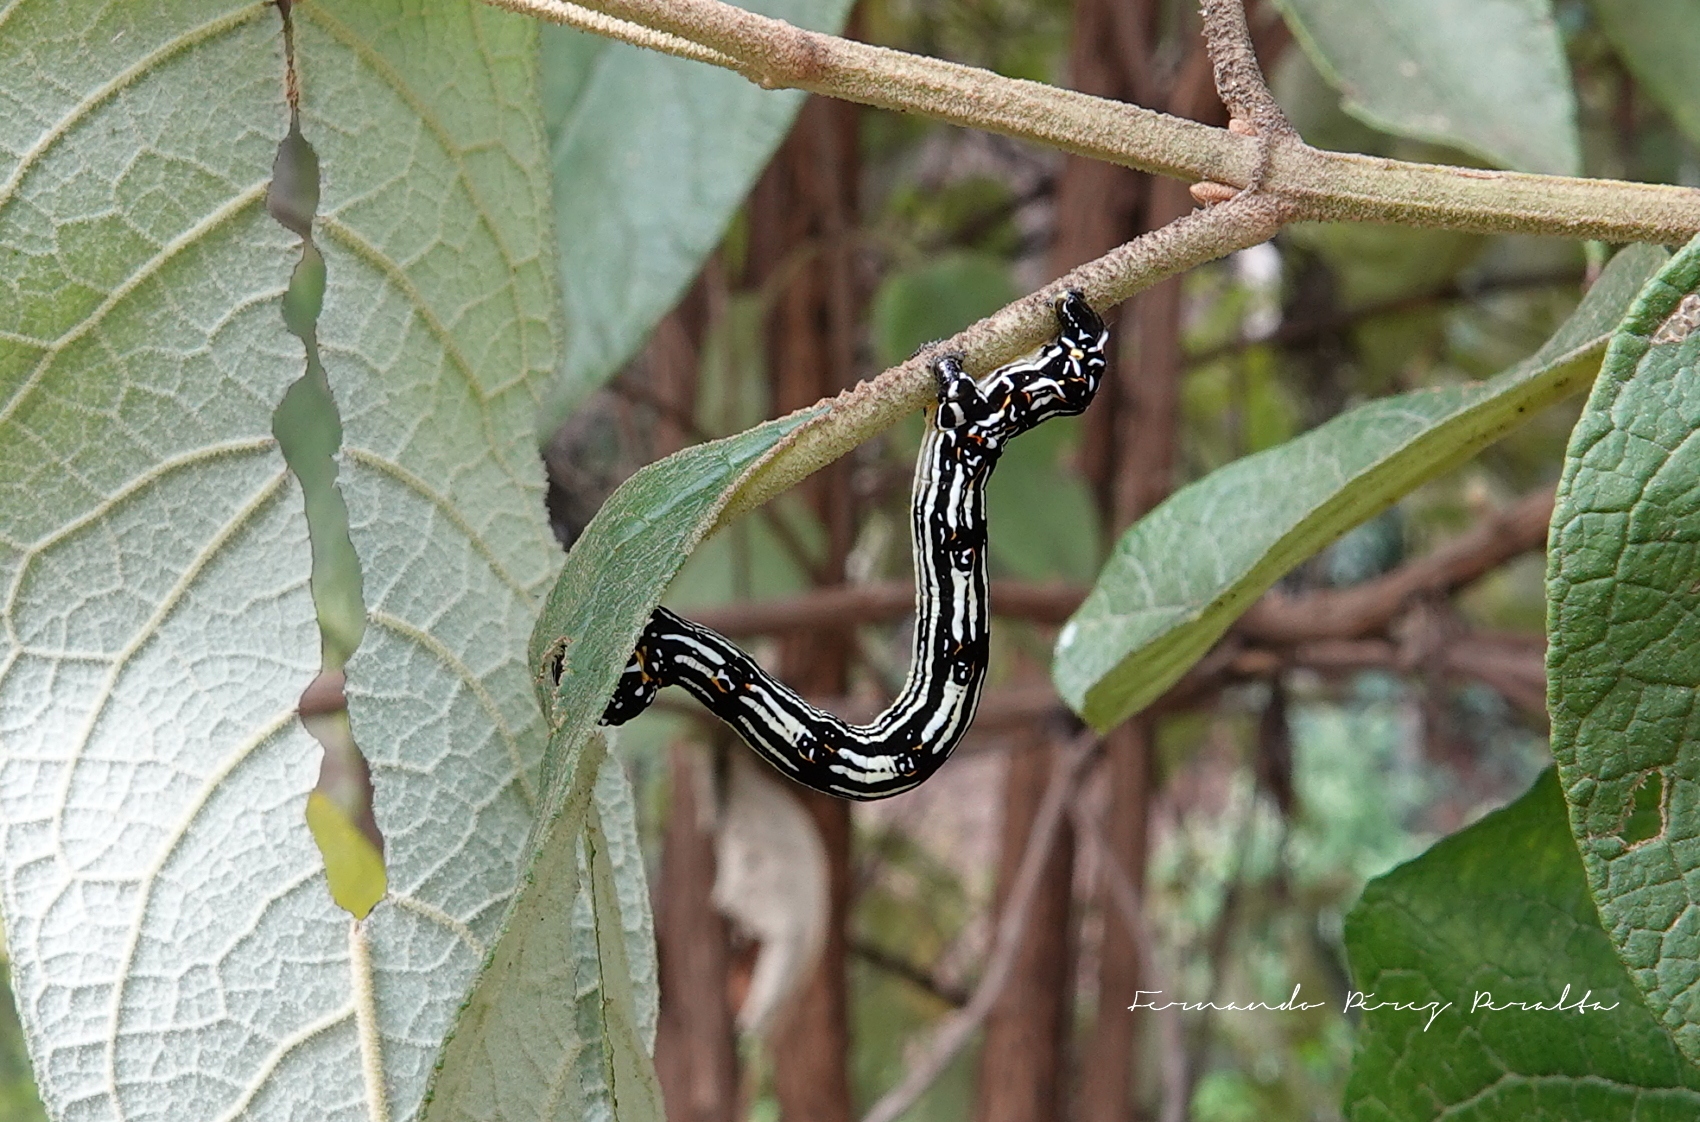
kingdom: Animalia
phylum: Arthropoda
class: Insecta
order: Lepidoptera
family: Geometridae
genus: Acronyctodes
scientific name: Acronyctodes mexicanaria
